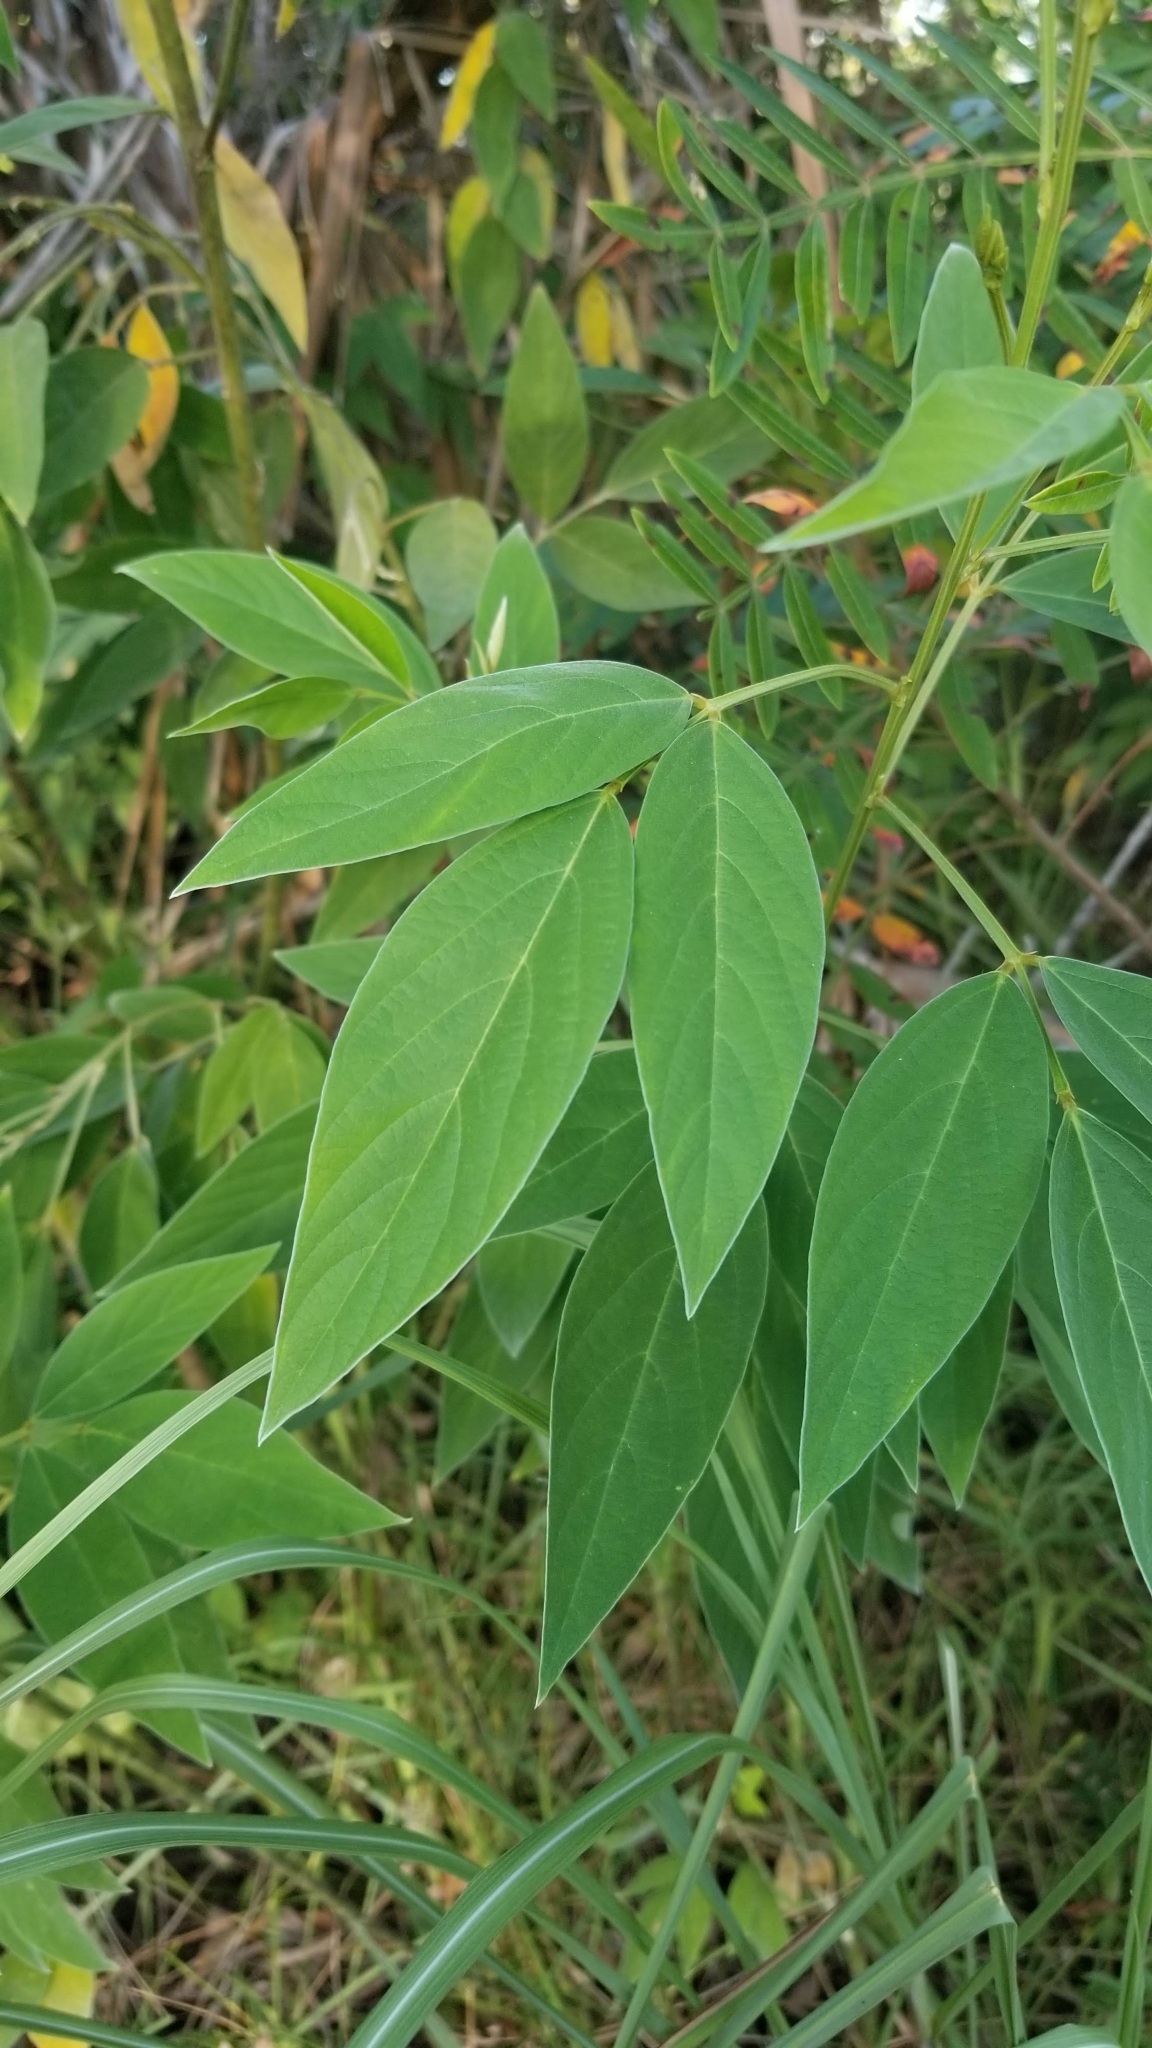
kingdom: Plantae
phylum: Tracheophyta
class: Magnoliopsida
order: Fabales
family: Fabaceae
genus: Cajanus
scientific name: Cajanus cajan
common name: Pigeonpea
